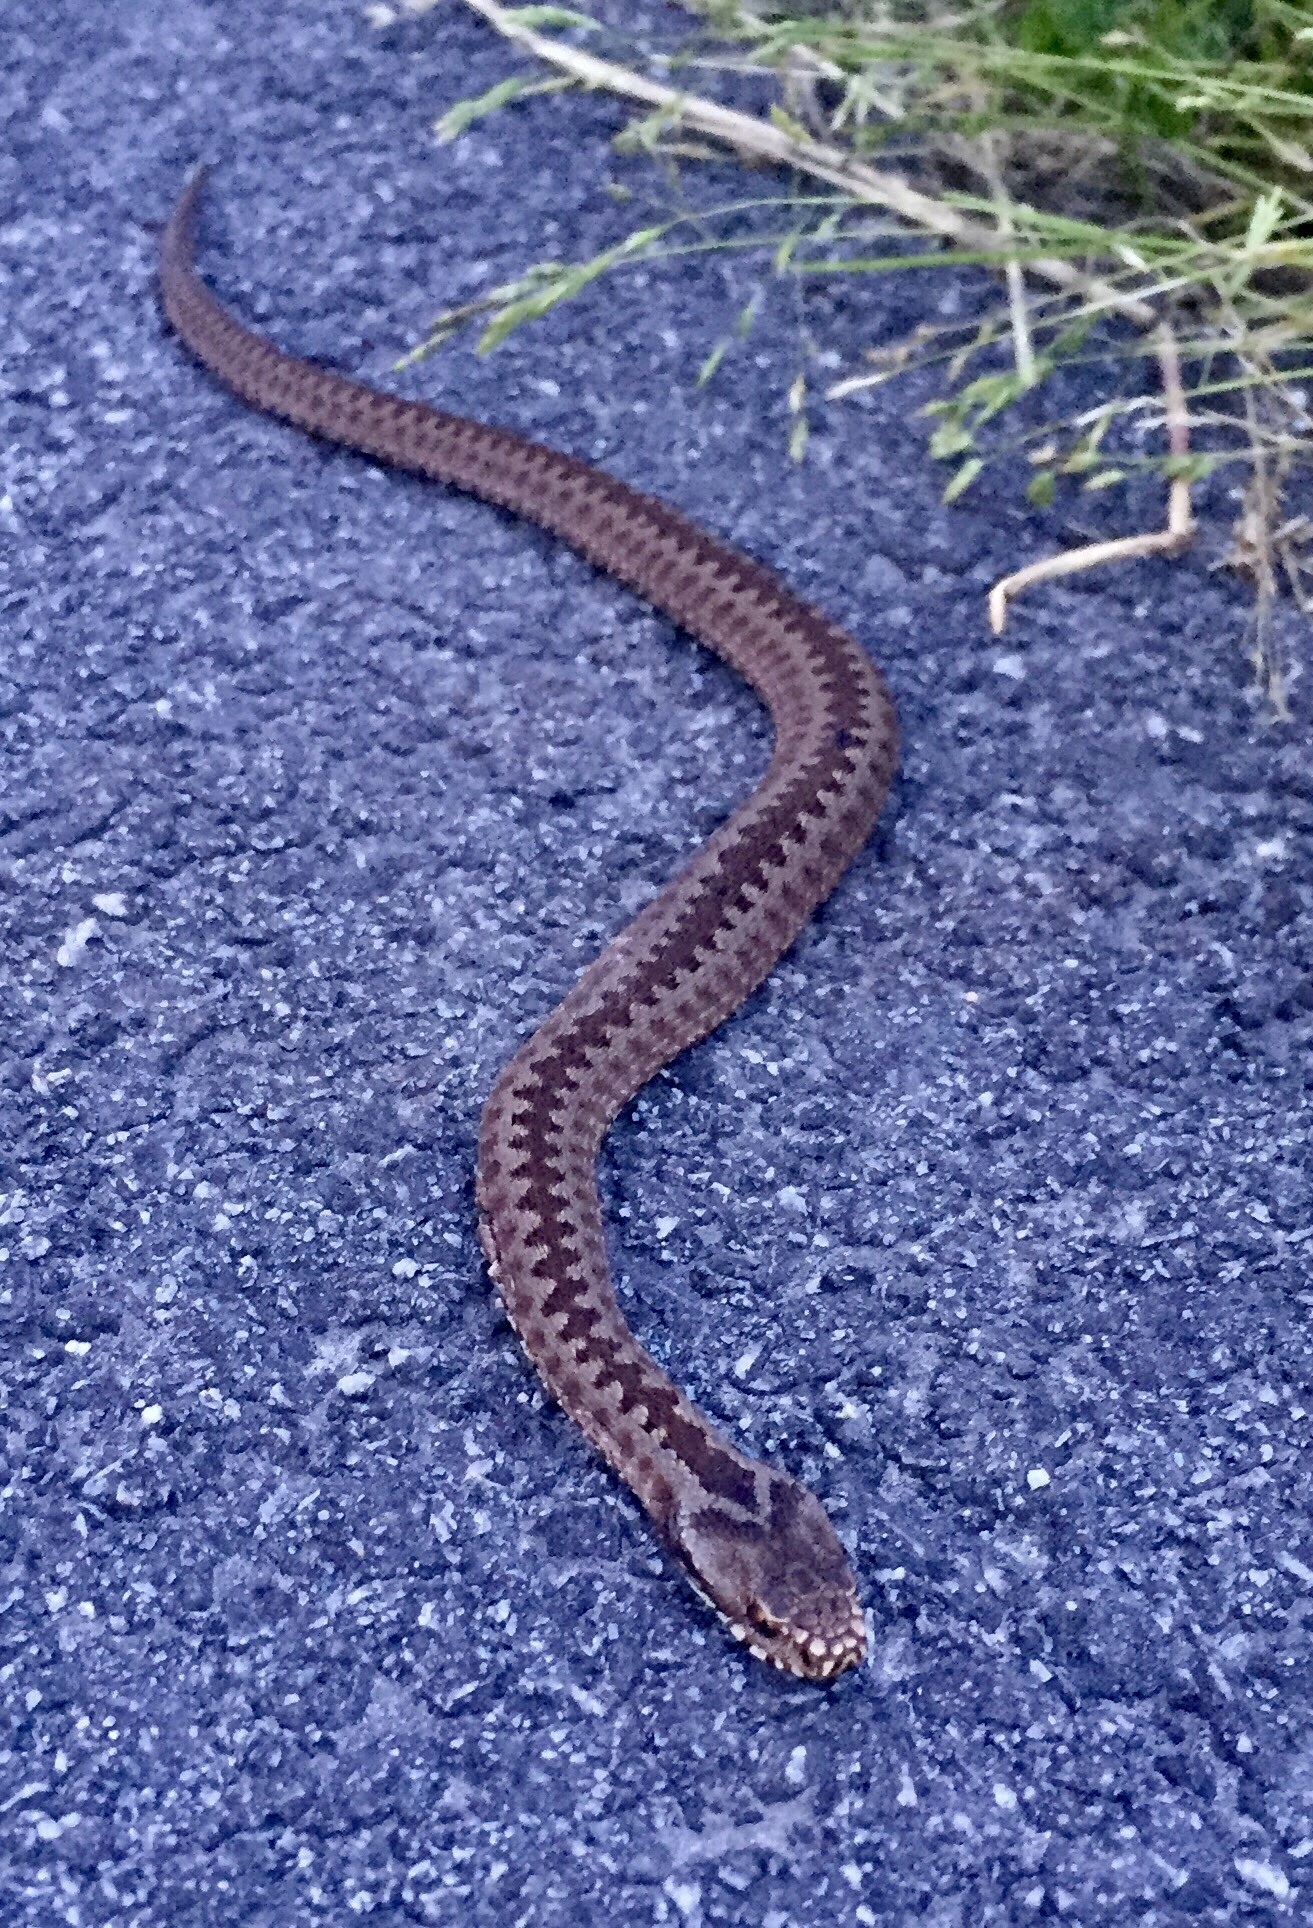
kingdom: Animalia
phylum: Chordata
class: Squamata
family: Viperidae
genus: Vipera
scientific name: Vipera berus
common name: Adder
